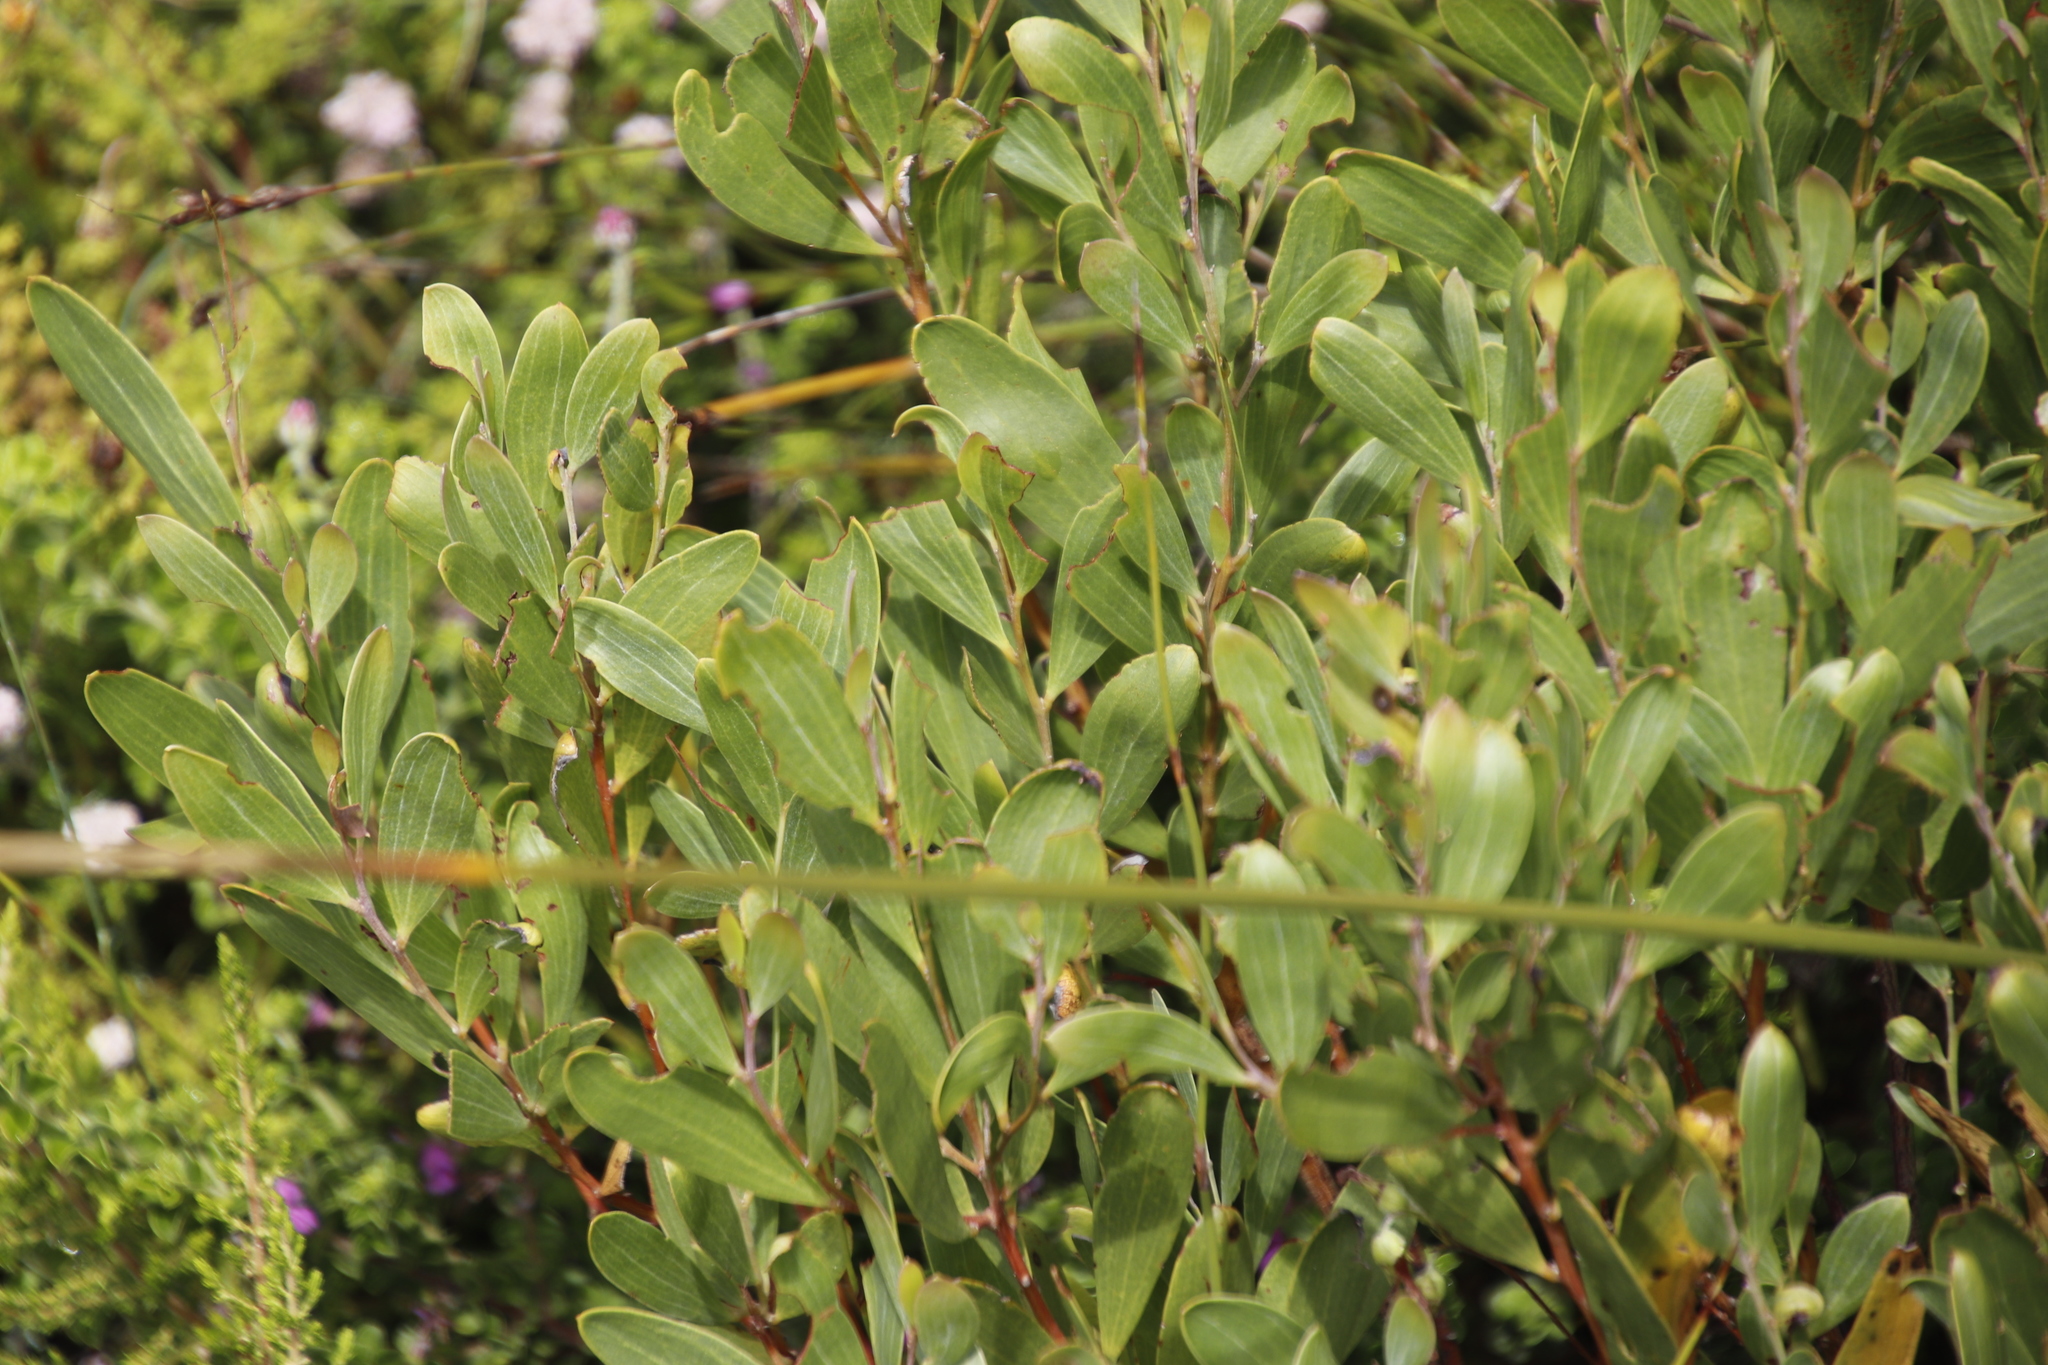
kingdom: Plantae
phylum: Tracheophyta
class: Magnoliopsida
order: Fabales
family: Fabaceae
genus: Acacia
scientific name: Acacia cyclops
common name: Coastal wattle
